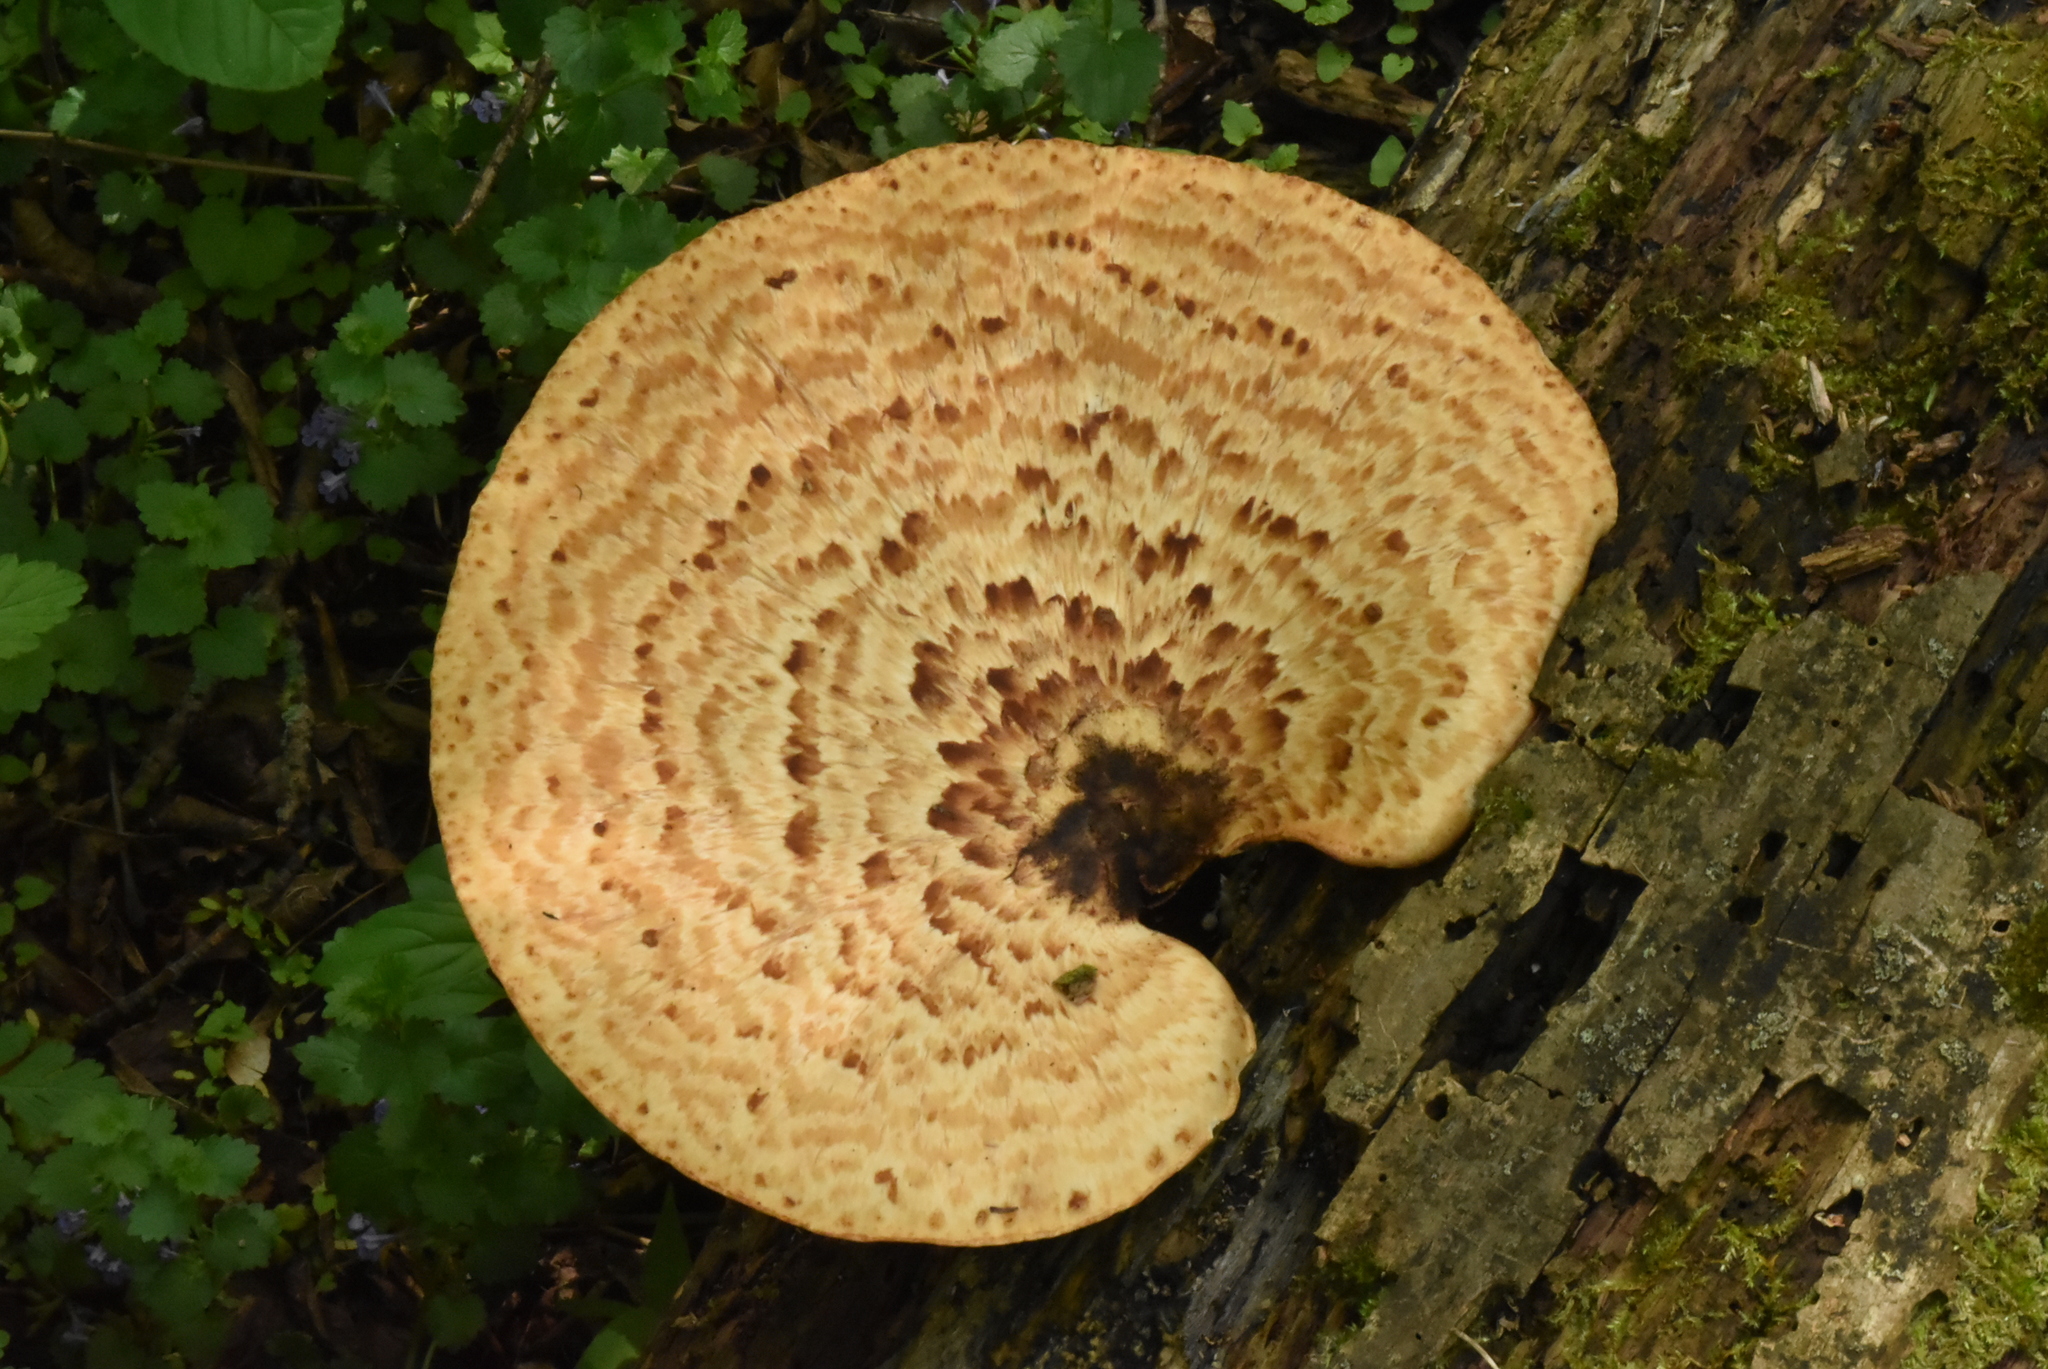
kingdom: Fungi
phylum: Basidiomycota
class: Agaricomycetes
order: Polyporales
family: Polyporaceae
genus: Cerioporus
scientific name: Cerioporus squamosus
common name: Dryad's saddle
